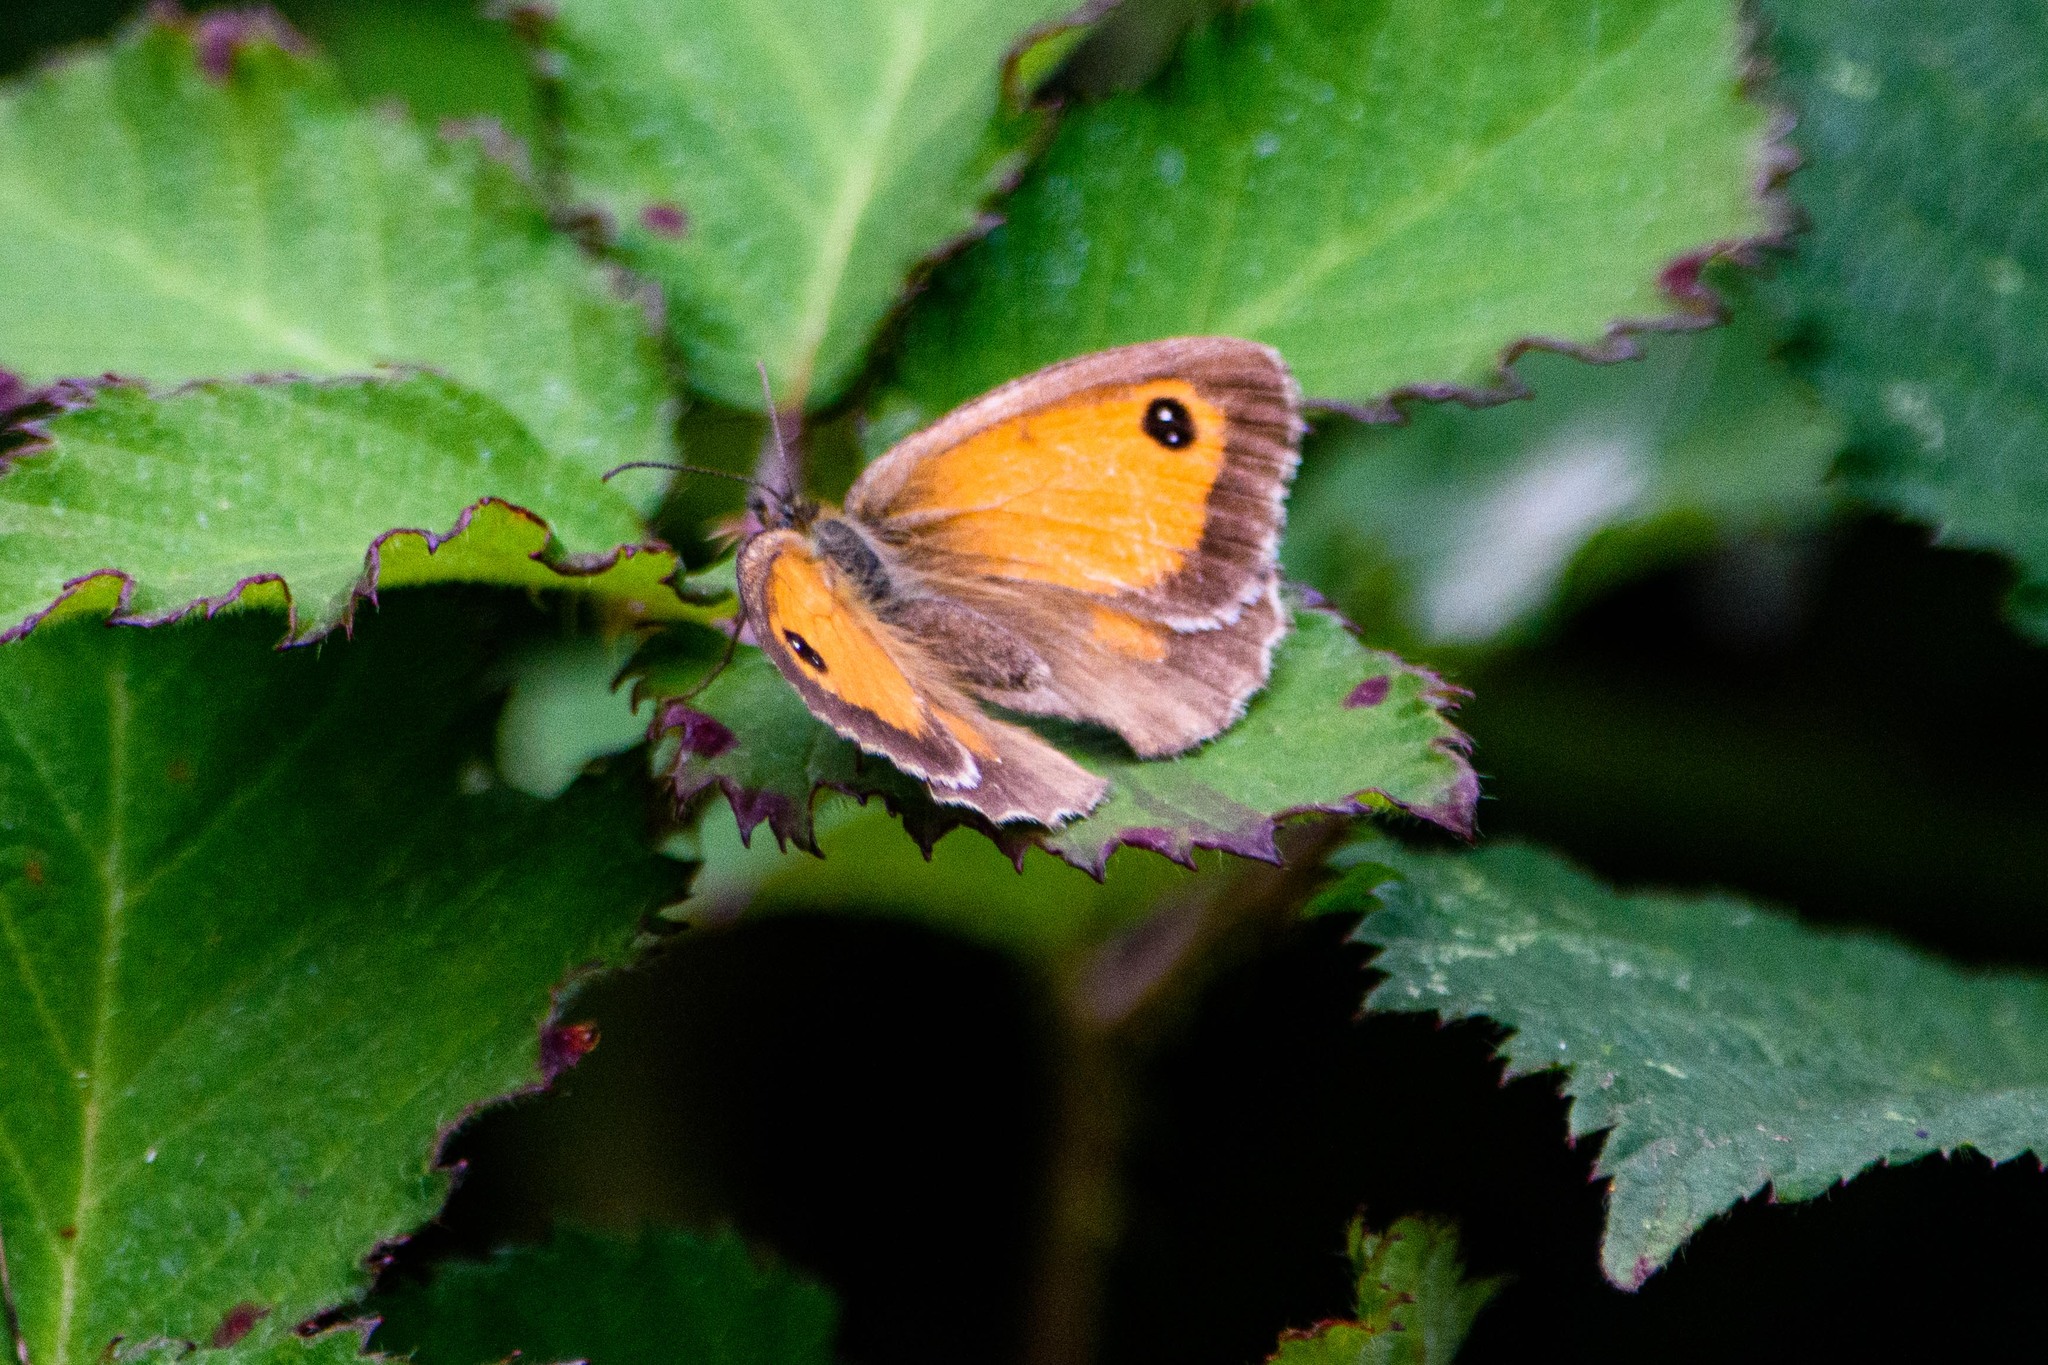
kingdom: Animalia
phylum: Arthropoda
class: Insecta
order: Lepidoptera
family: Nymphalidae
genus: Pyronia
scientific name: Pyronia tithonus
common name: Gatekeeper
